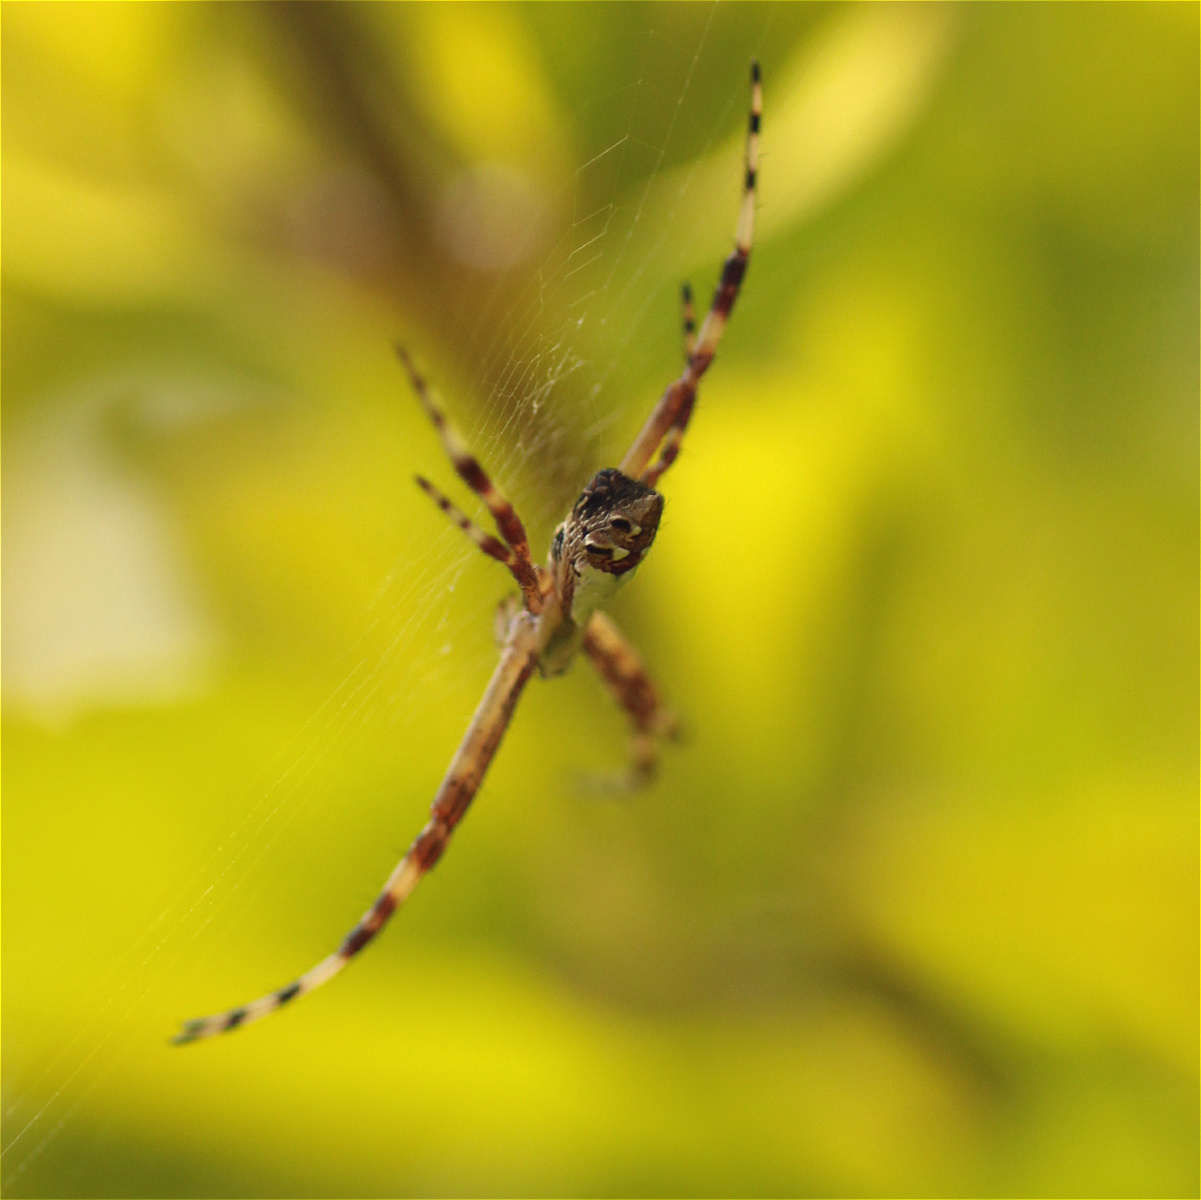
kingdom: Animalia
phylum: Arthropoda
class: Arachnida
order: Araneae
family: Araneidae
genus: Argiope
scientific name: Argiope argentata
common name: Orb weavers
